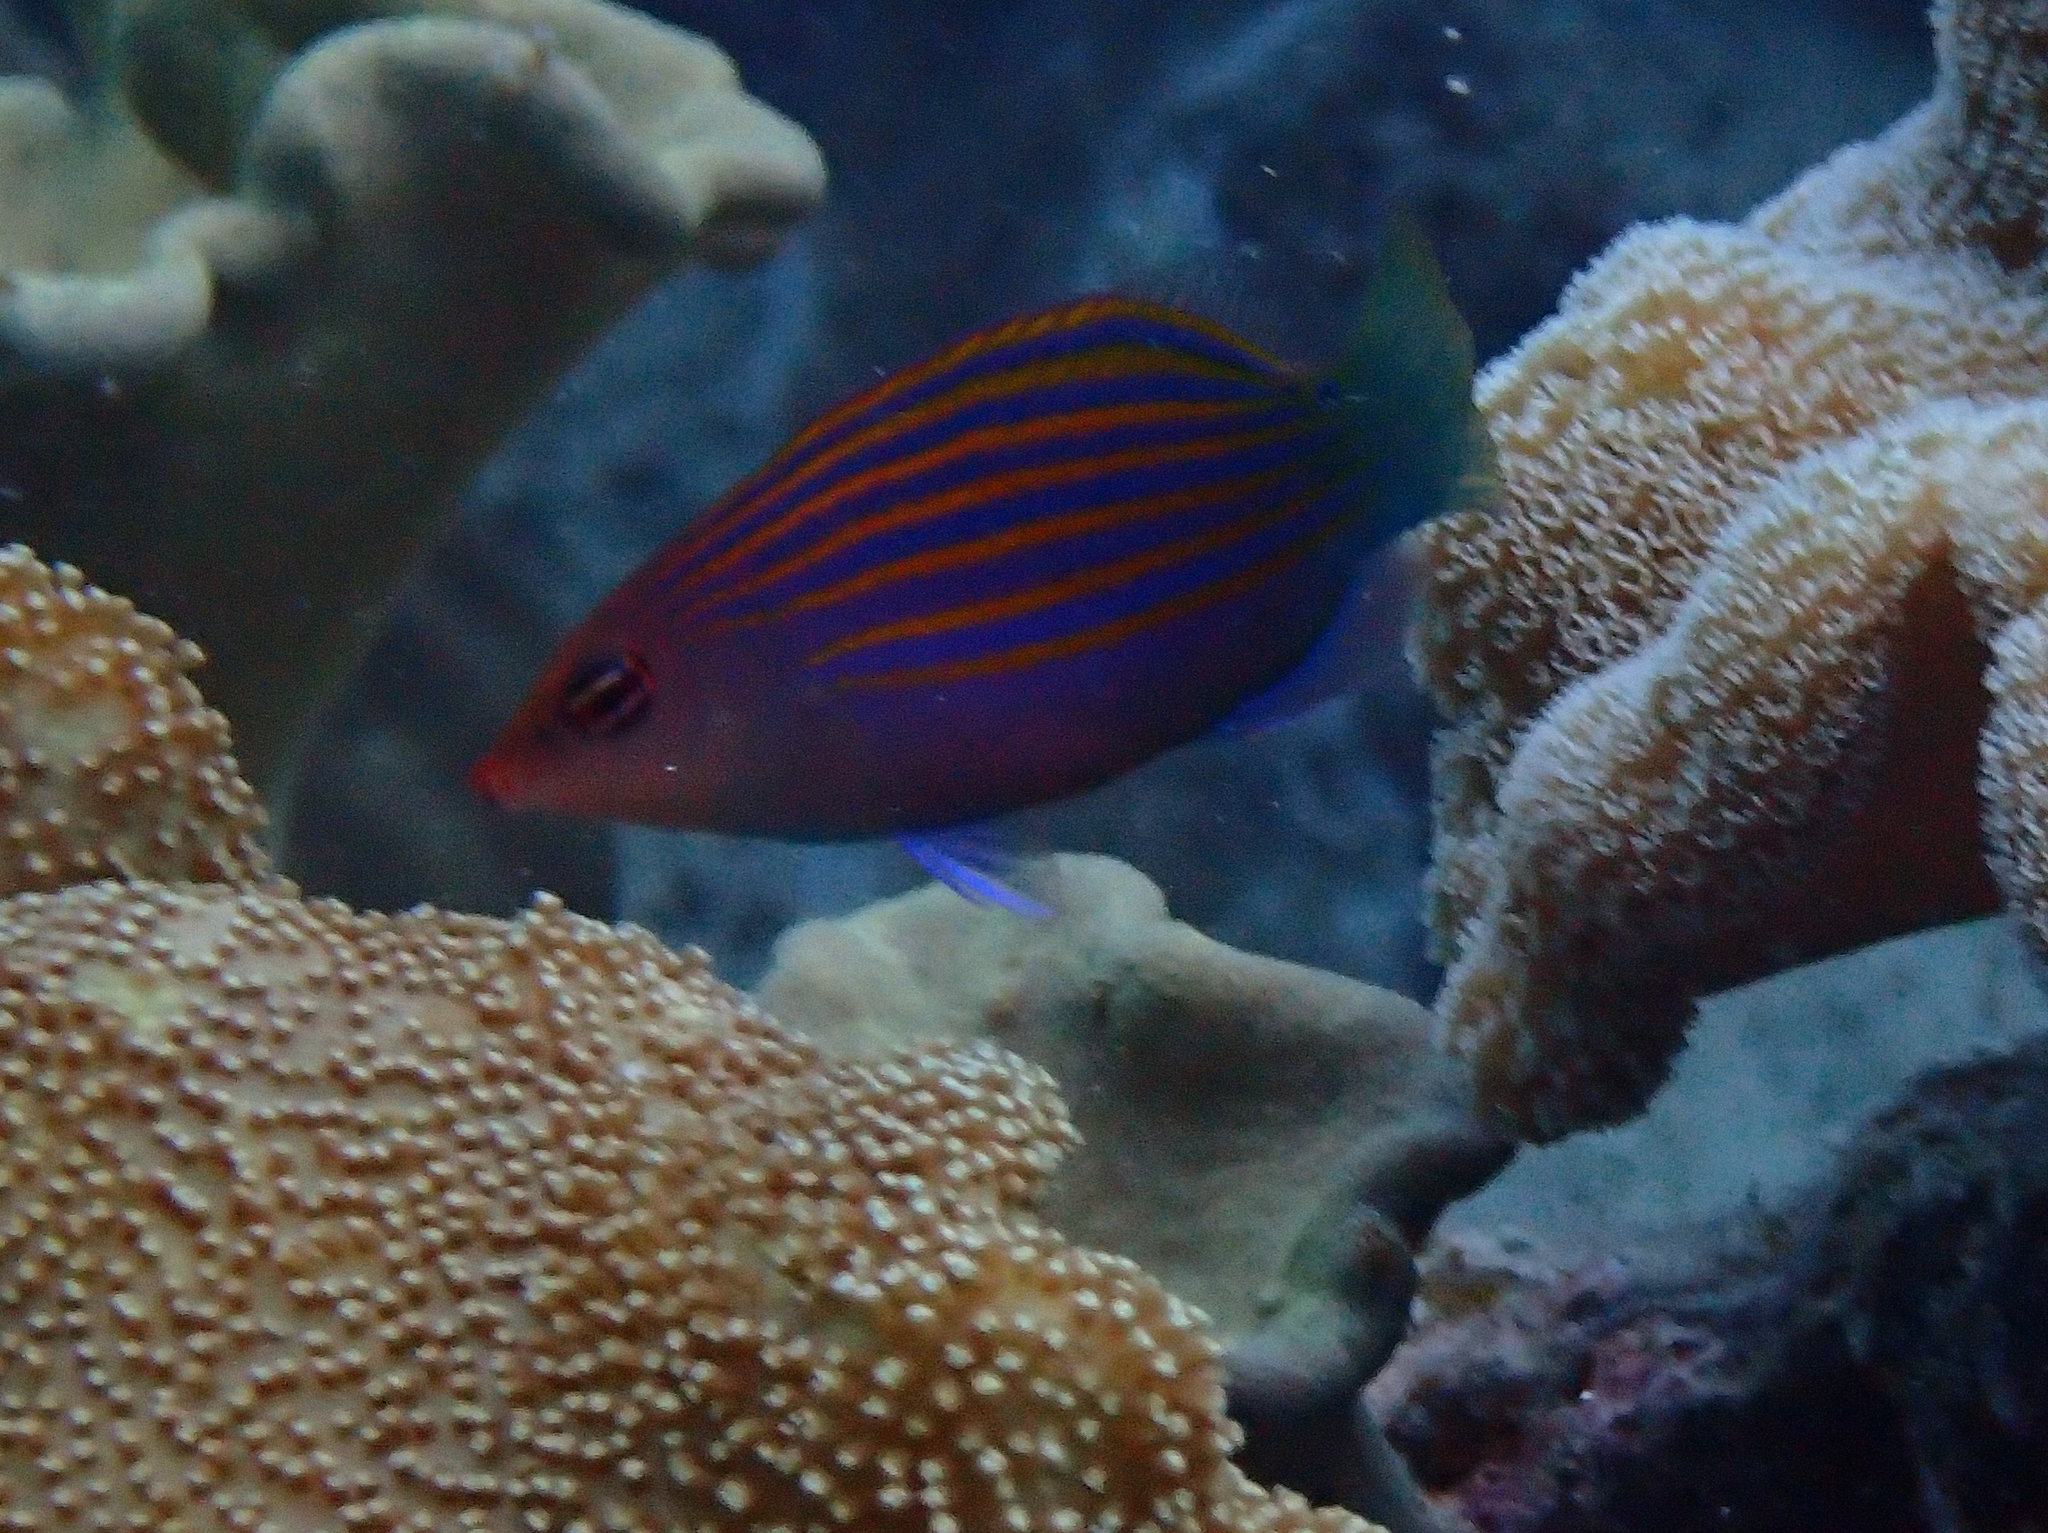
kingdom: Animalia
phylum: Chordata
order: Perciformes
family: Labridae
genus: Pseudocheilinus
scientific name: Pseudocheilinus hexataenia
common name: Sixline wrasse
